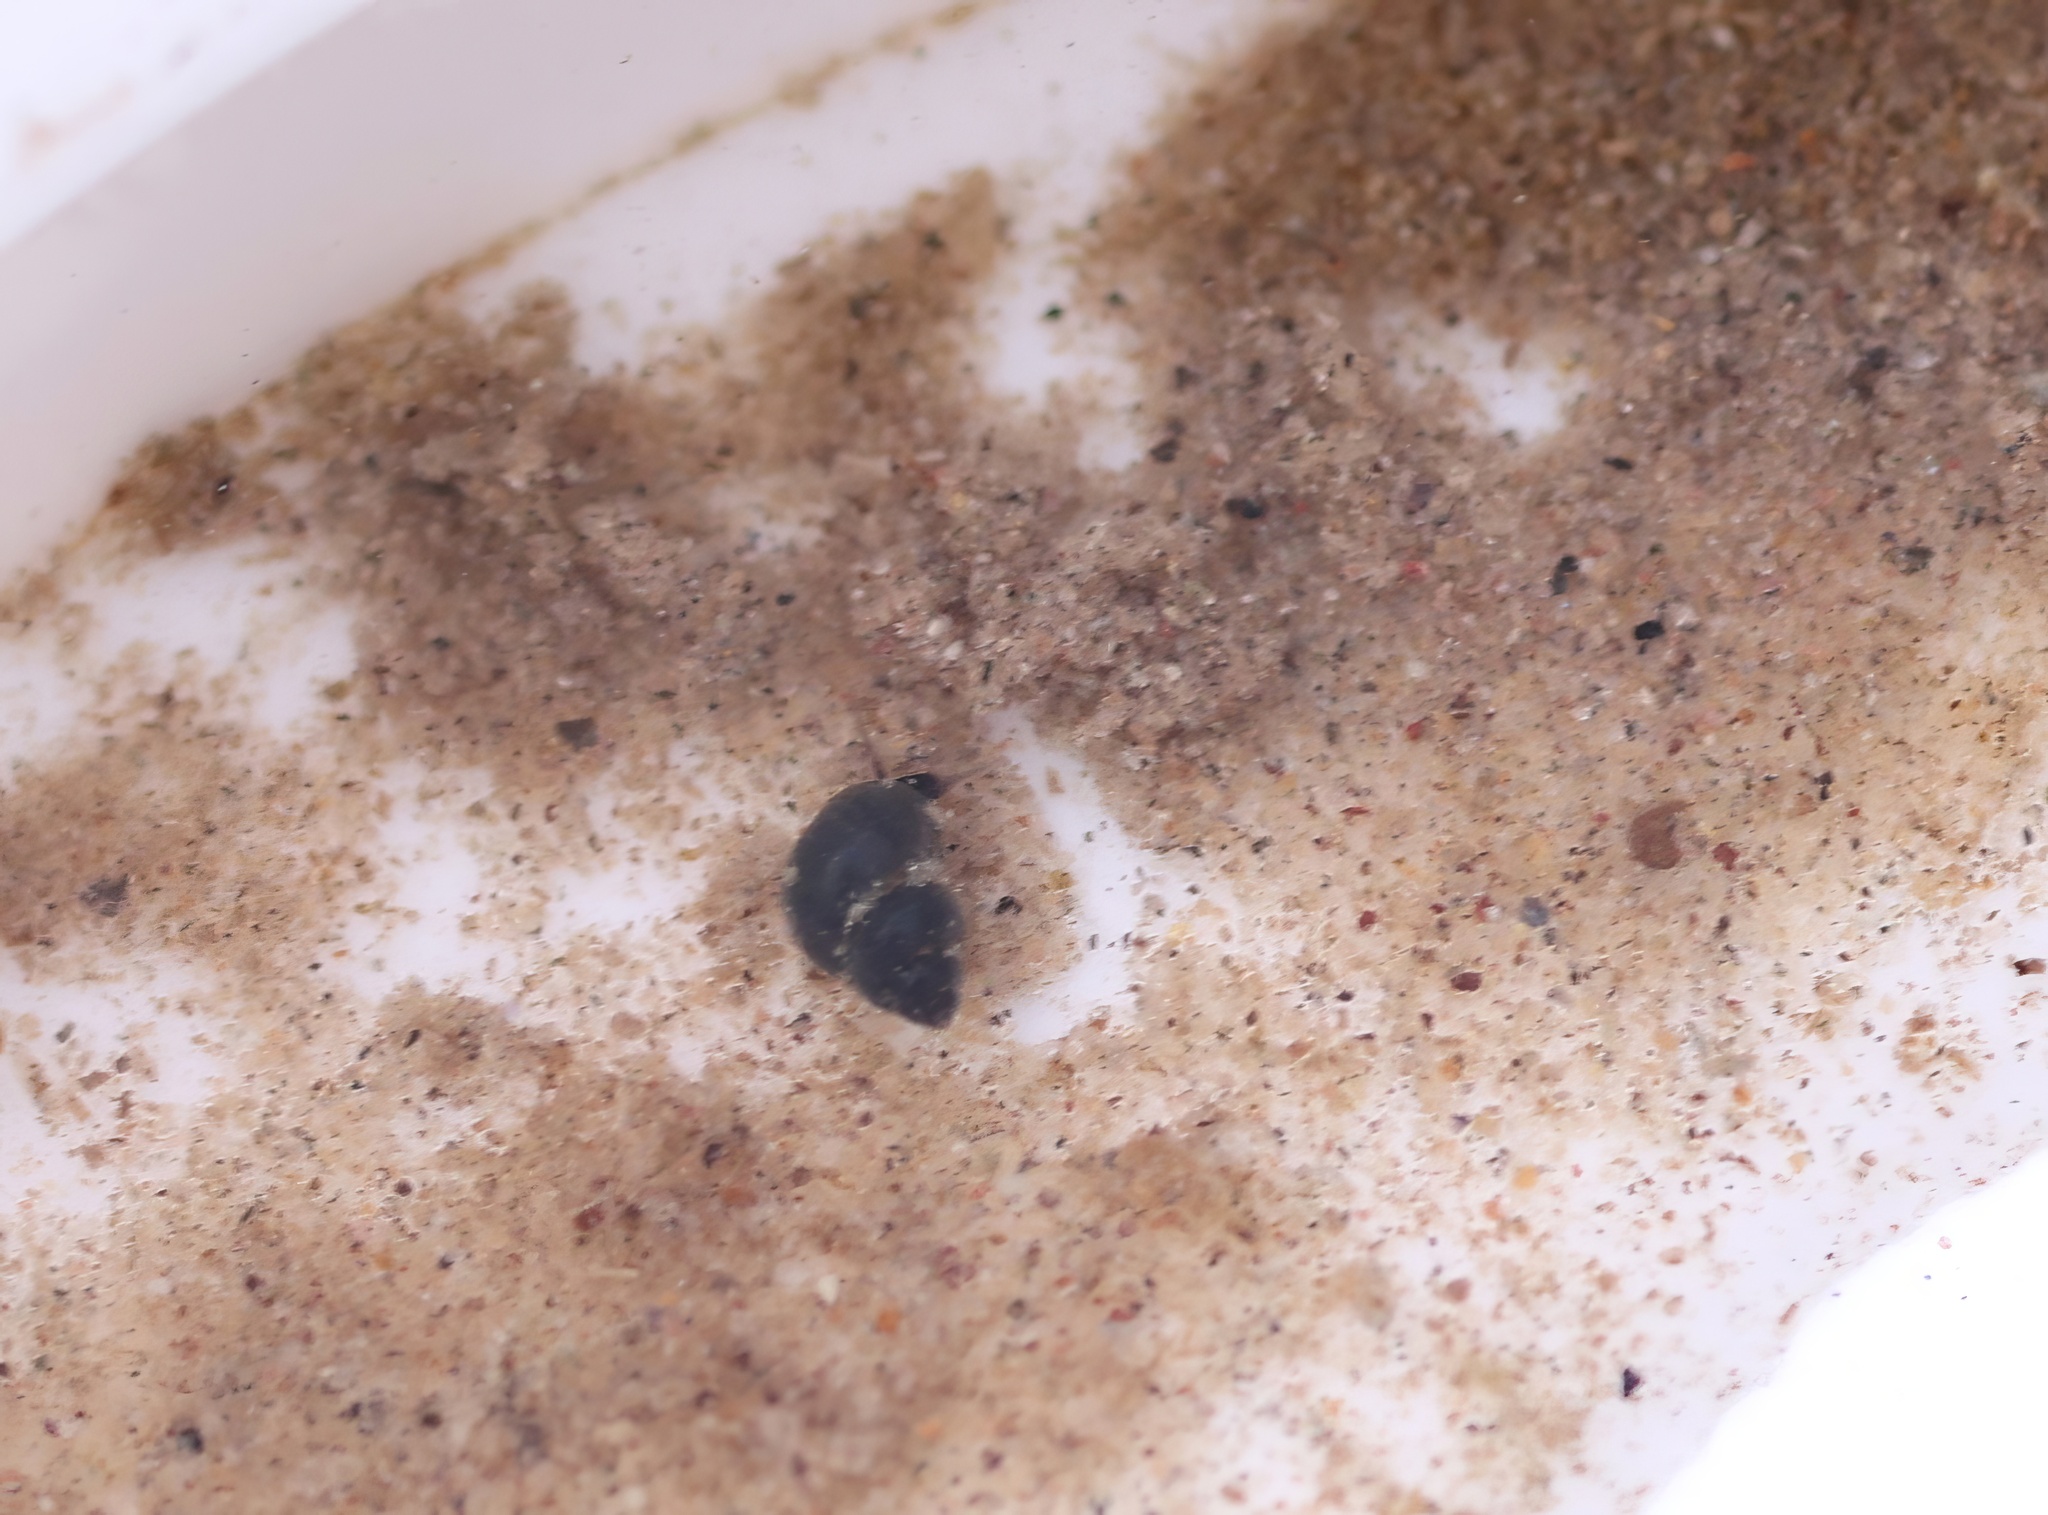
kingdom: Animalia
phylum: Mollusca
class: Gastropoda
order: Littorinimorpha
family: Cochliopidae
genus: Ipnobius
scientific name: Ipnobius robustus
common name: Robust tryonia
